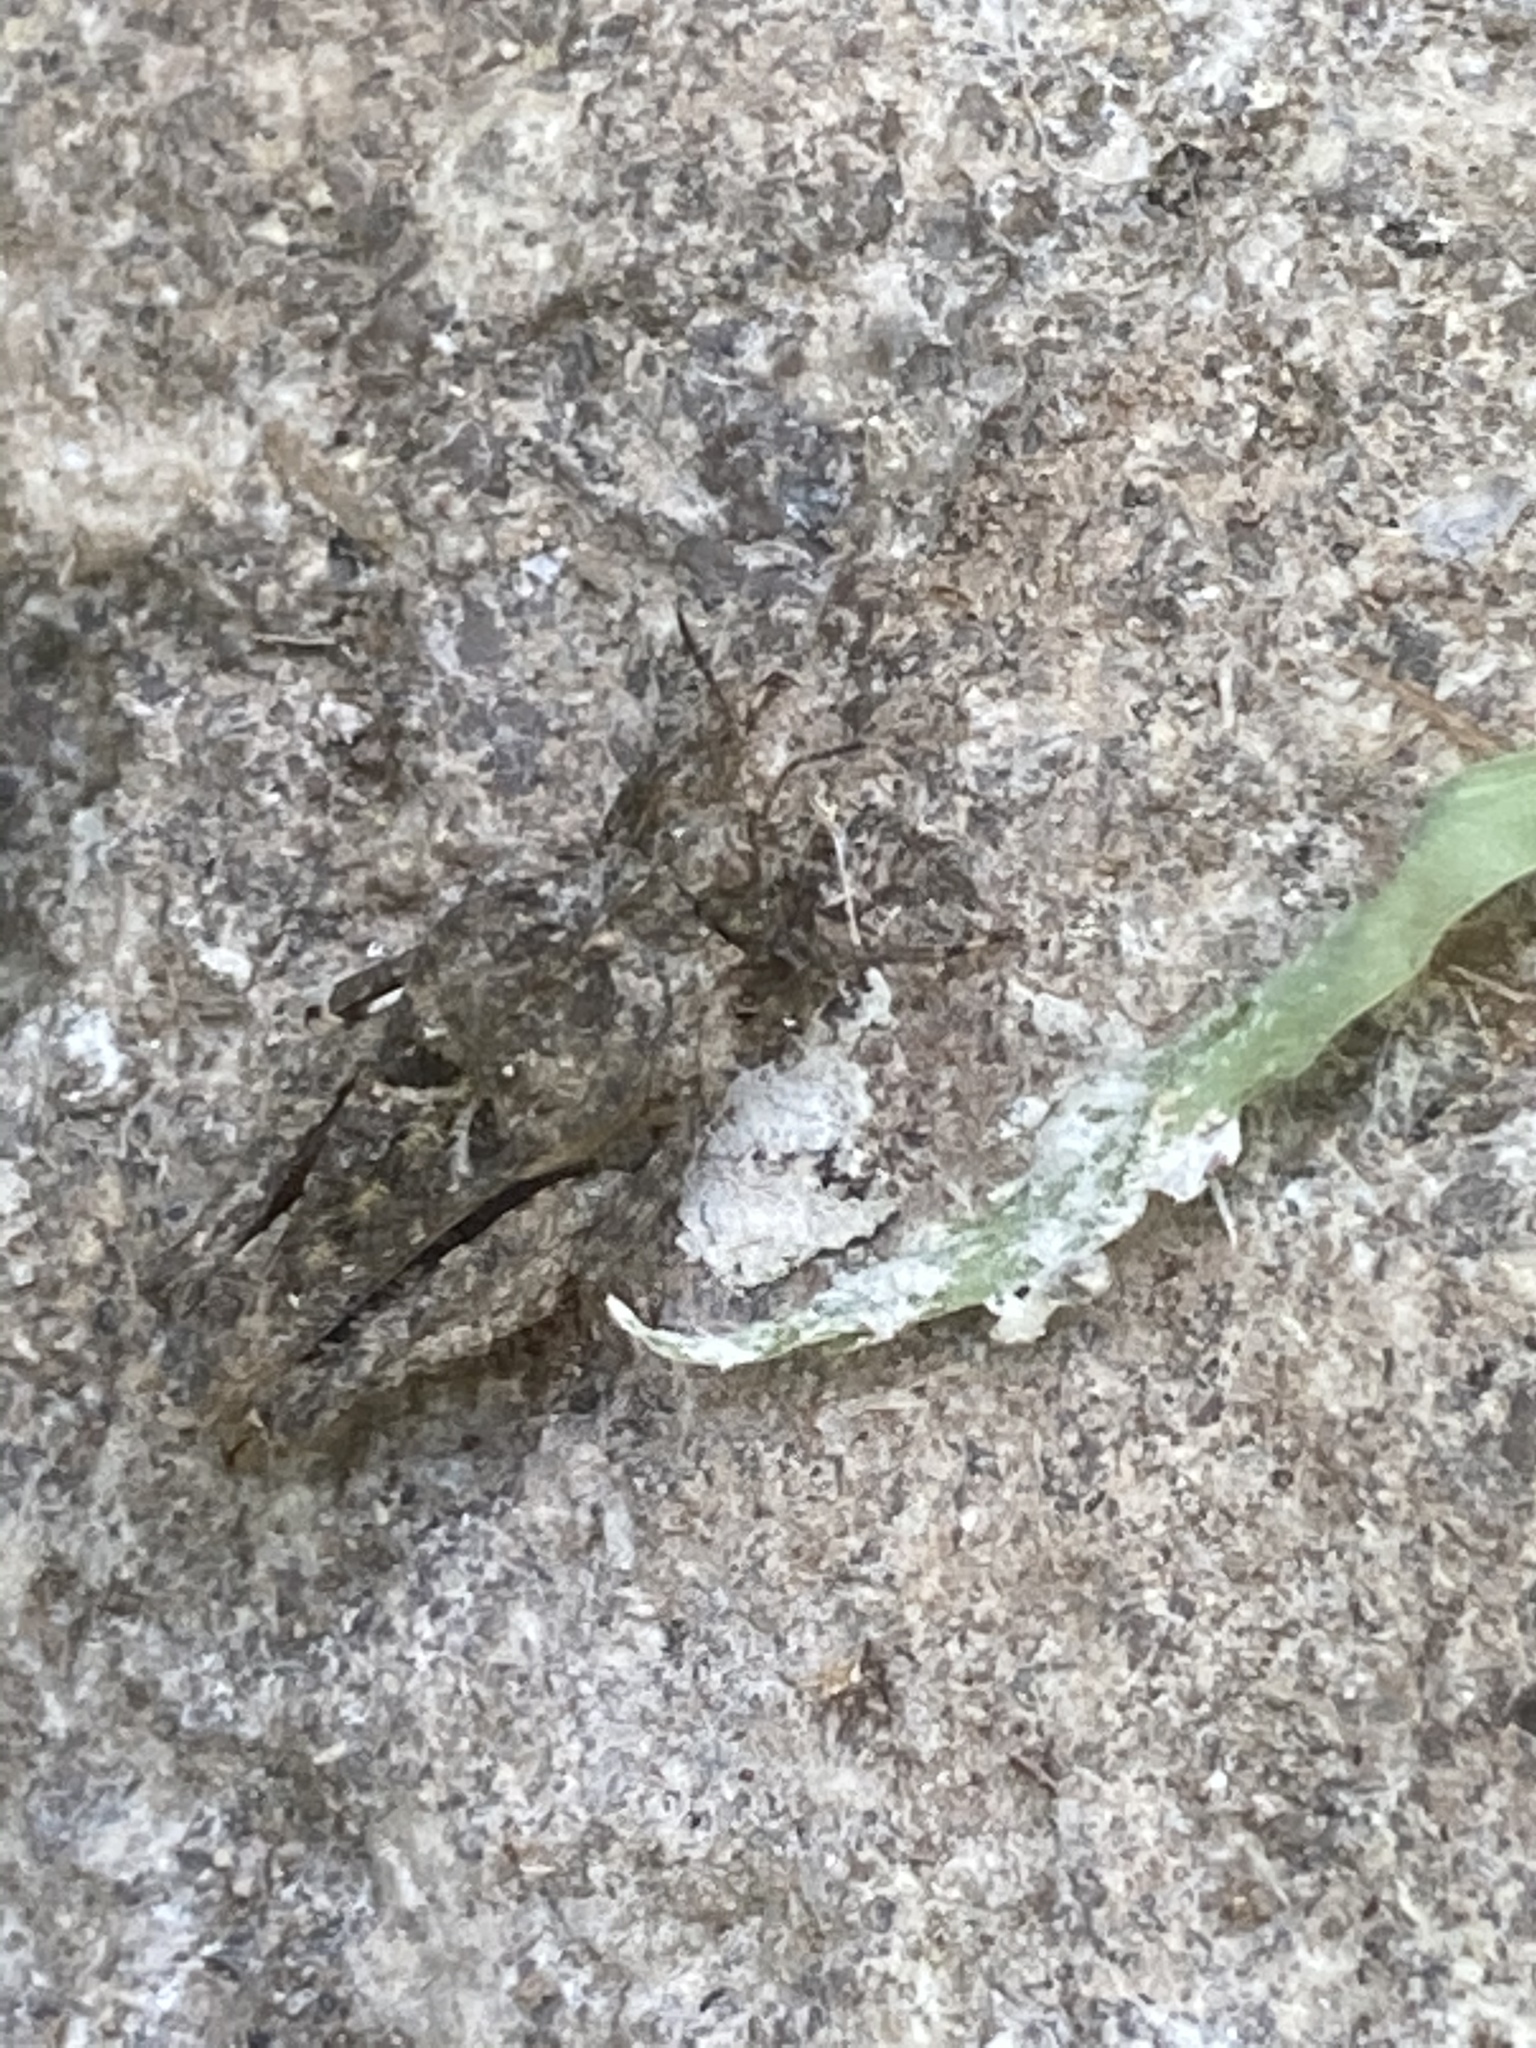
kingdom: Animalia
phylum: Arthropoda
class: Insecta
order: Orthoptera
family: Tetrigidae
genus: Tetrix
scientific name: Tetrix depressa
